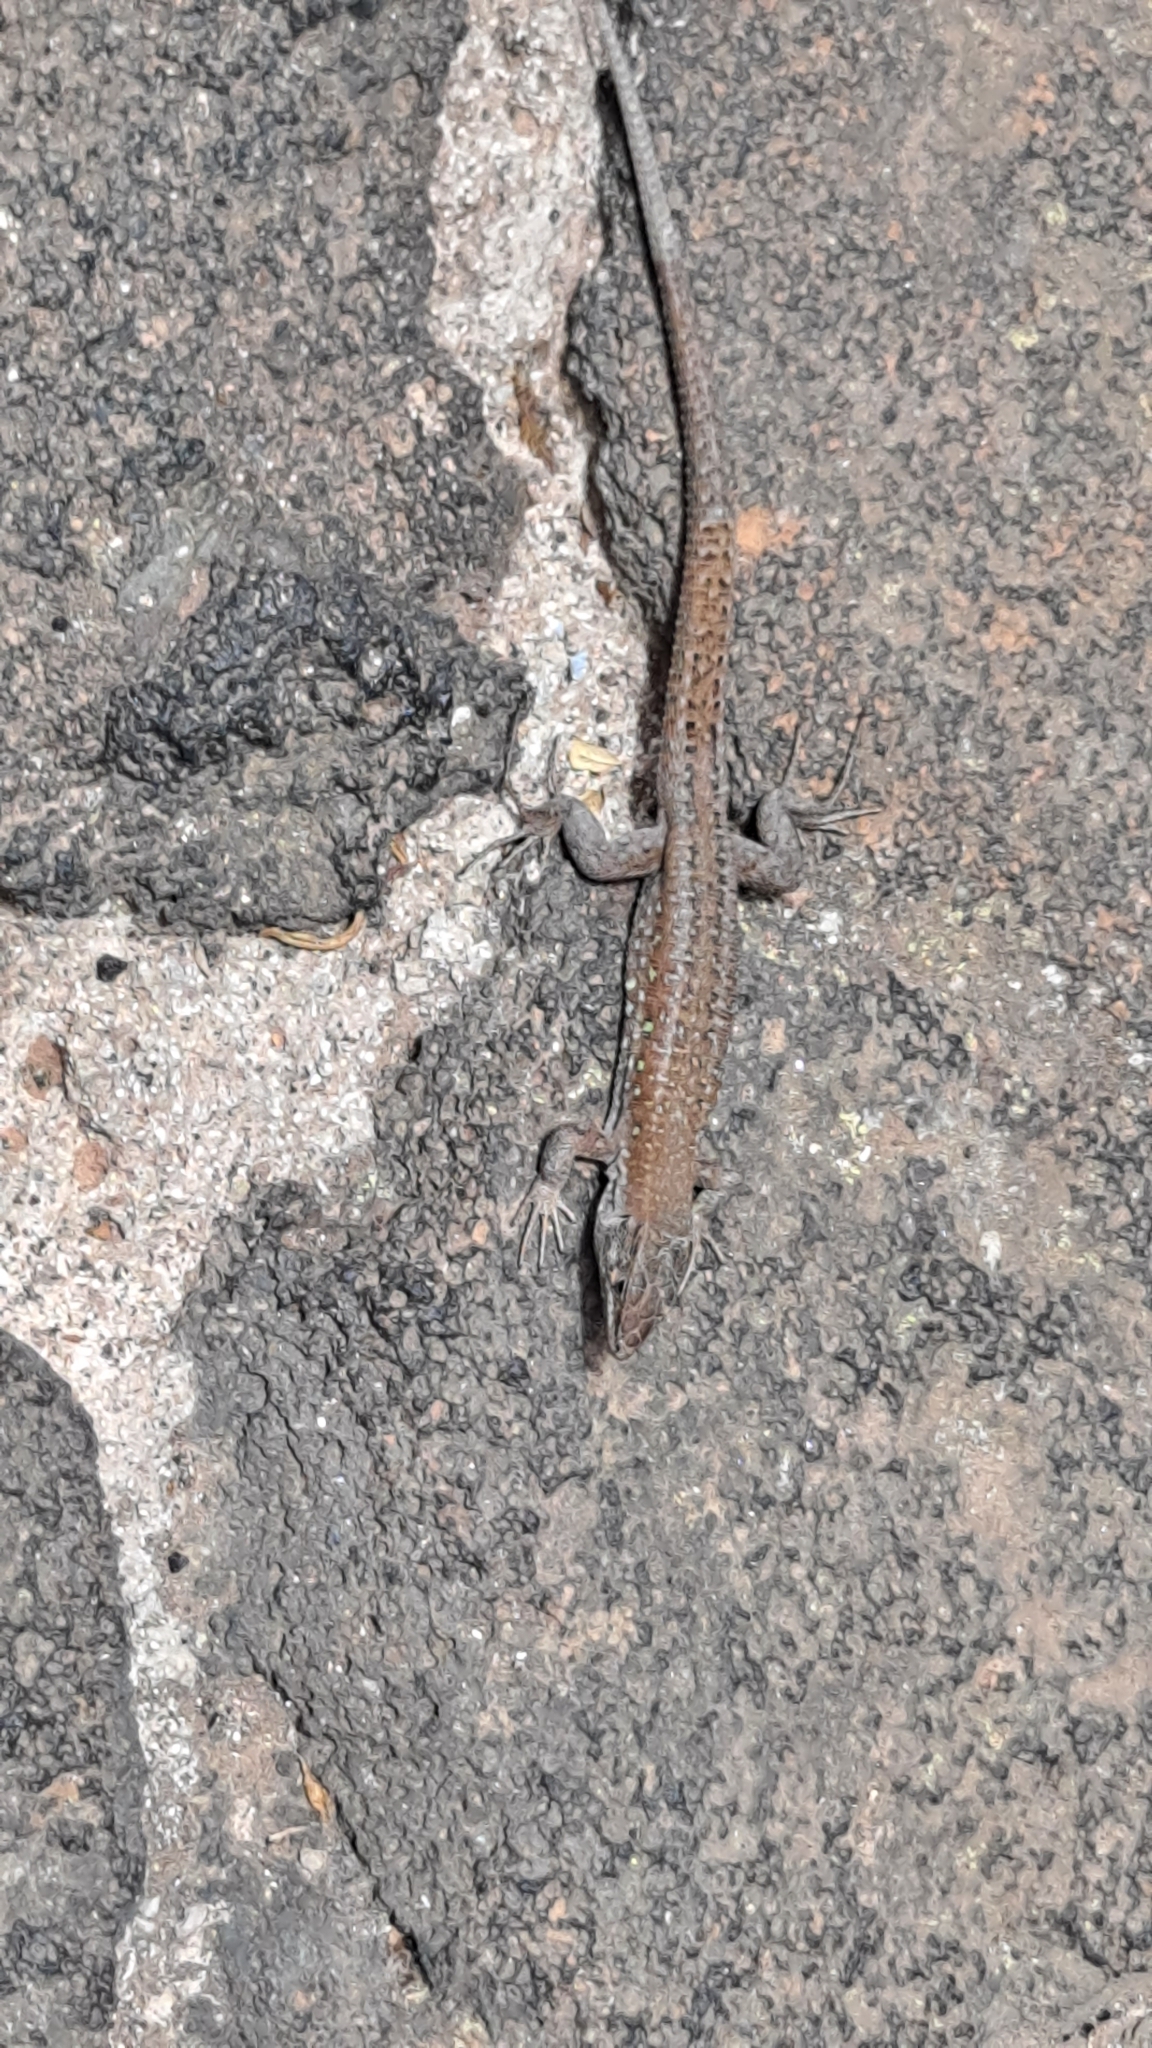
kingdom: Animalia
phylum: Chordata
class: Squamata
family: Lacertidae
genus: Gallotia
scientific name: Gallotia atlantica
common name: Atlantic lizard
